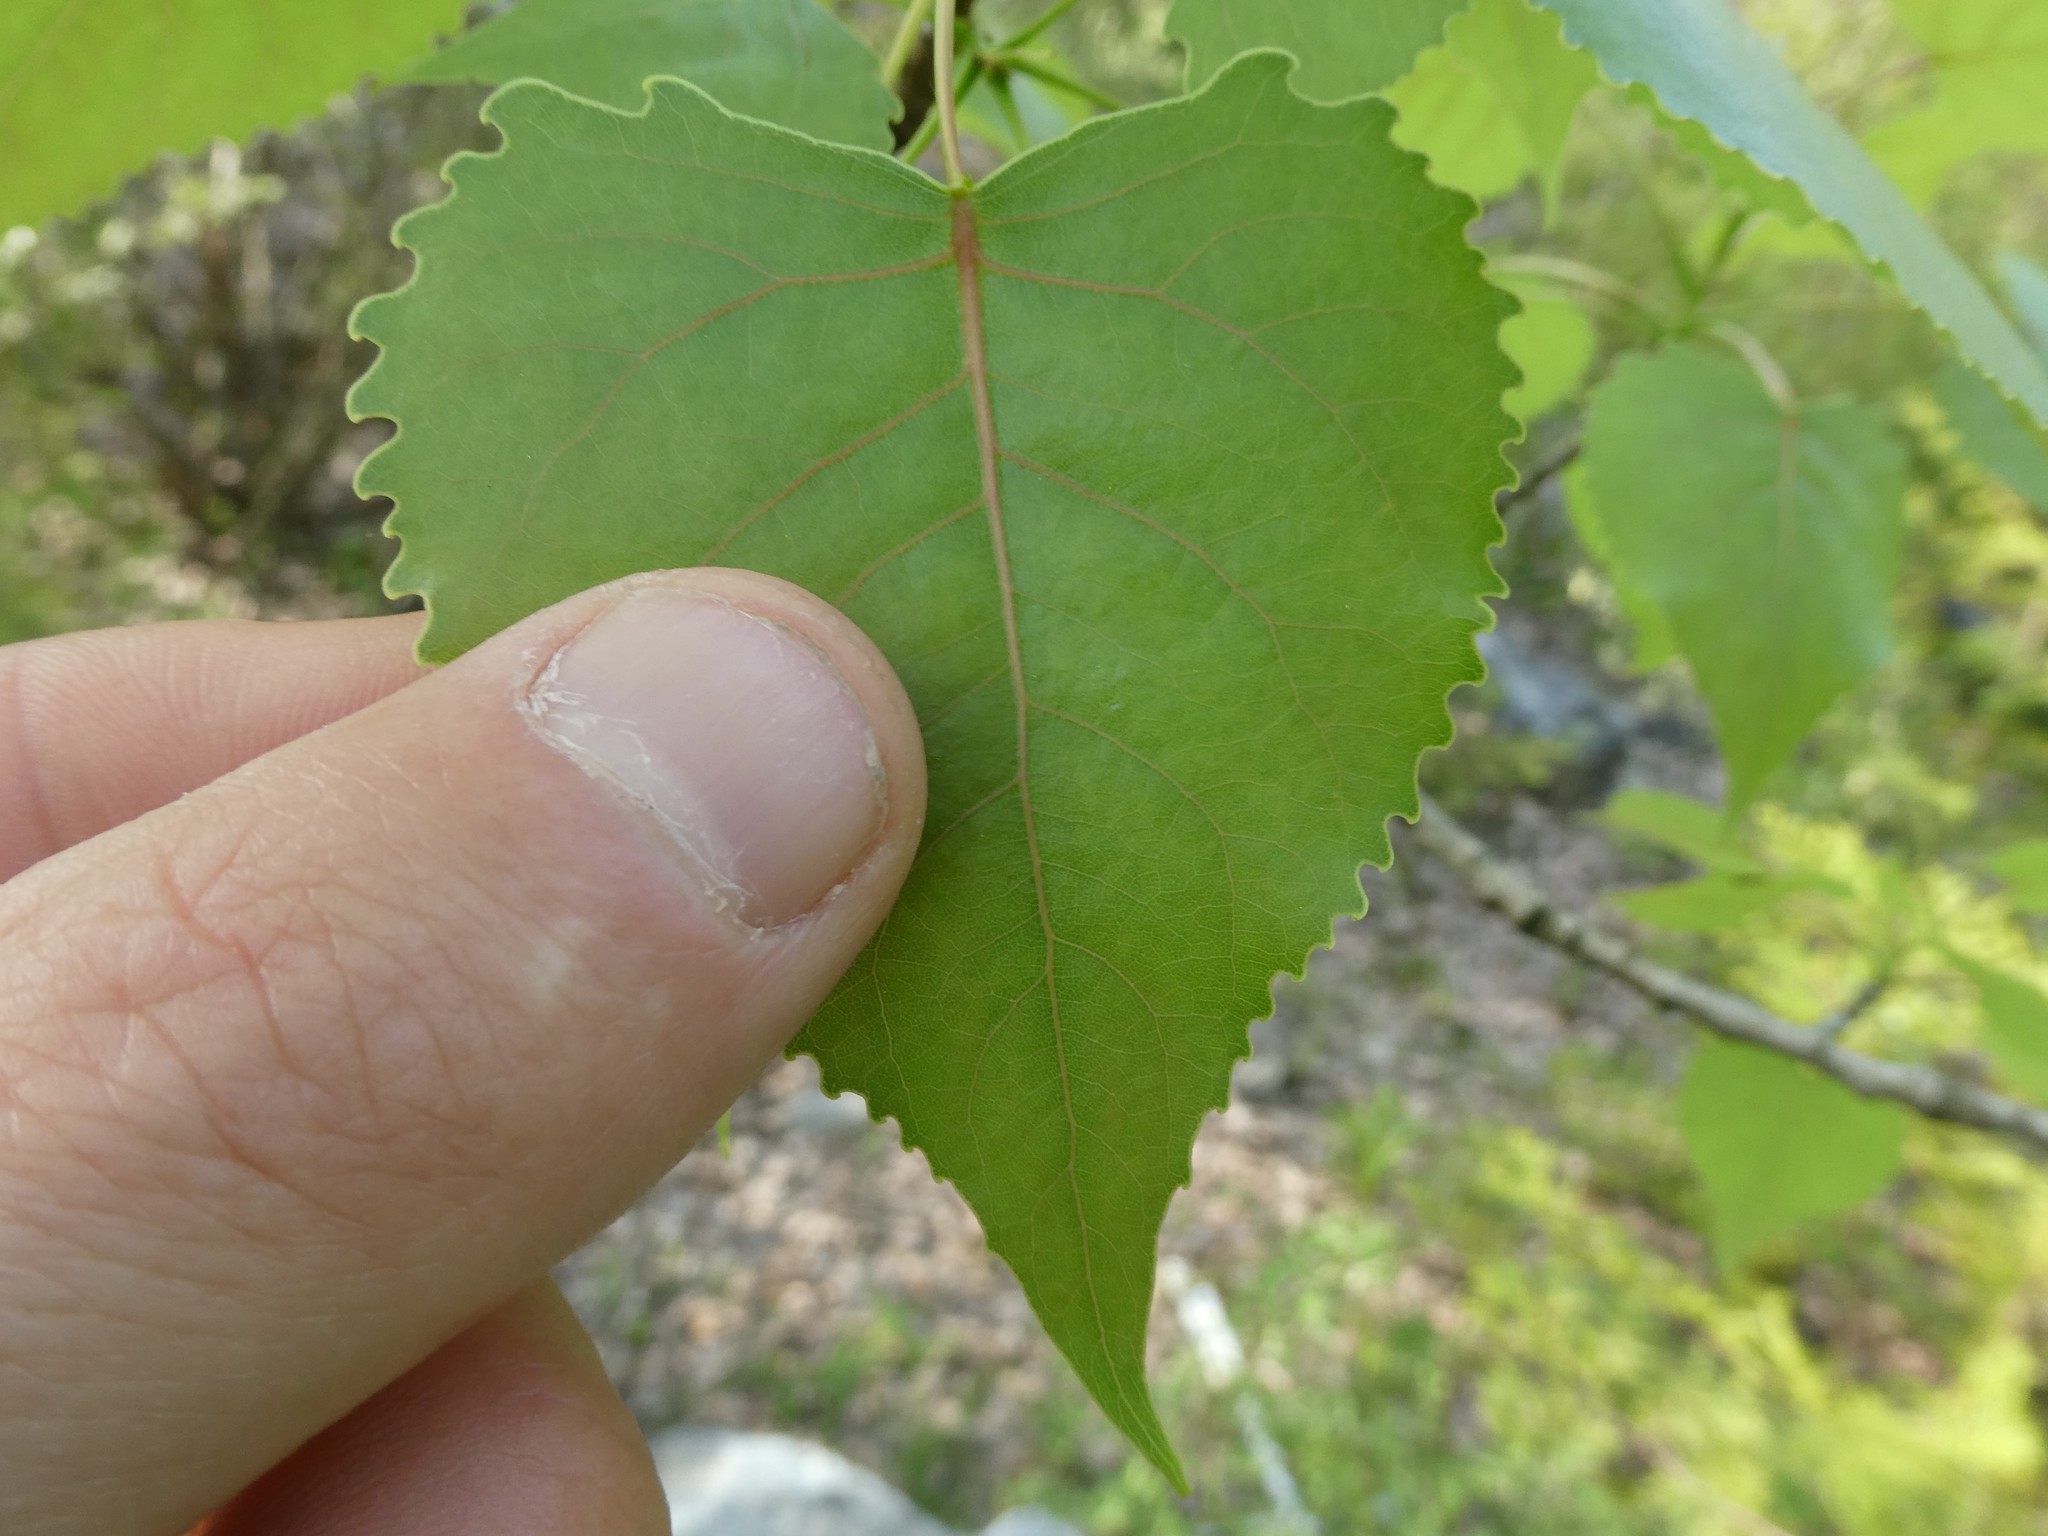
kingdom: Plantae
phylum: Tracheophyta
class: Magnoliopsida
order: Malpighiales
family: Salicaceae
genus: Populus
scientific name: Populus deltoides
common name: Eastern cottonwood
